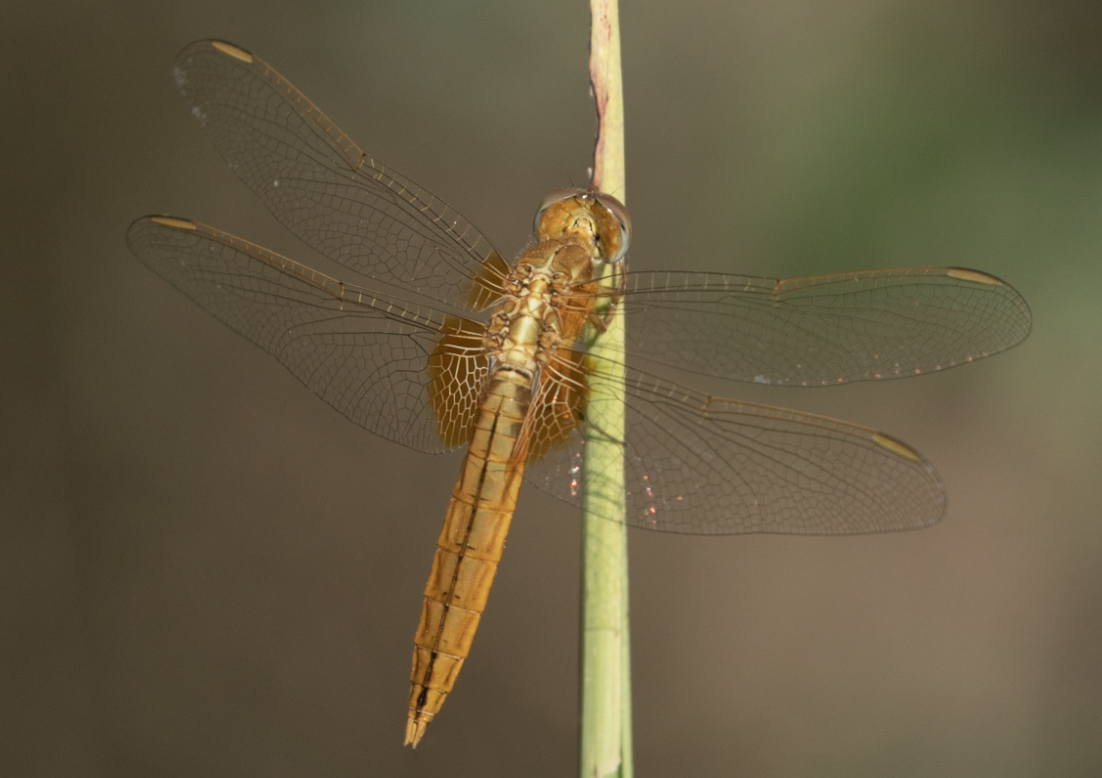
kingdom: Animalia
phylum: Arthropoda
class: Insecta
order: Odonata
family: Libellulidae
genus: Crocothemis
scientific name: Crocothemis erythraea
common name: Scarlet dragonfly
